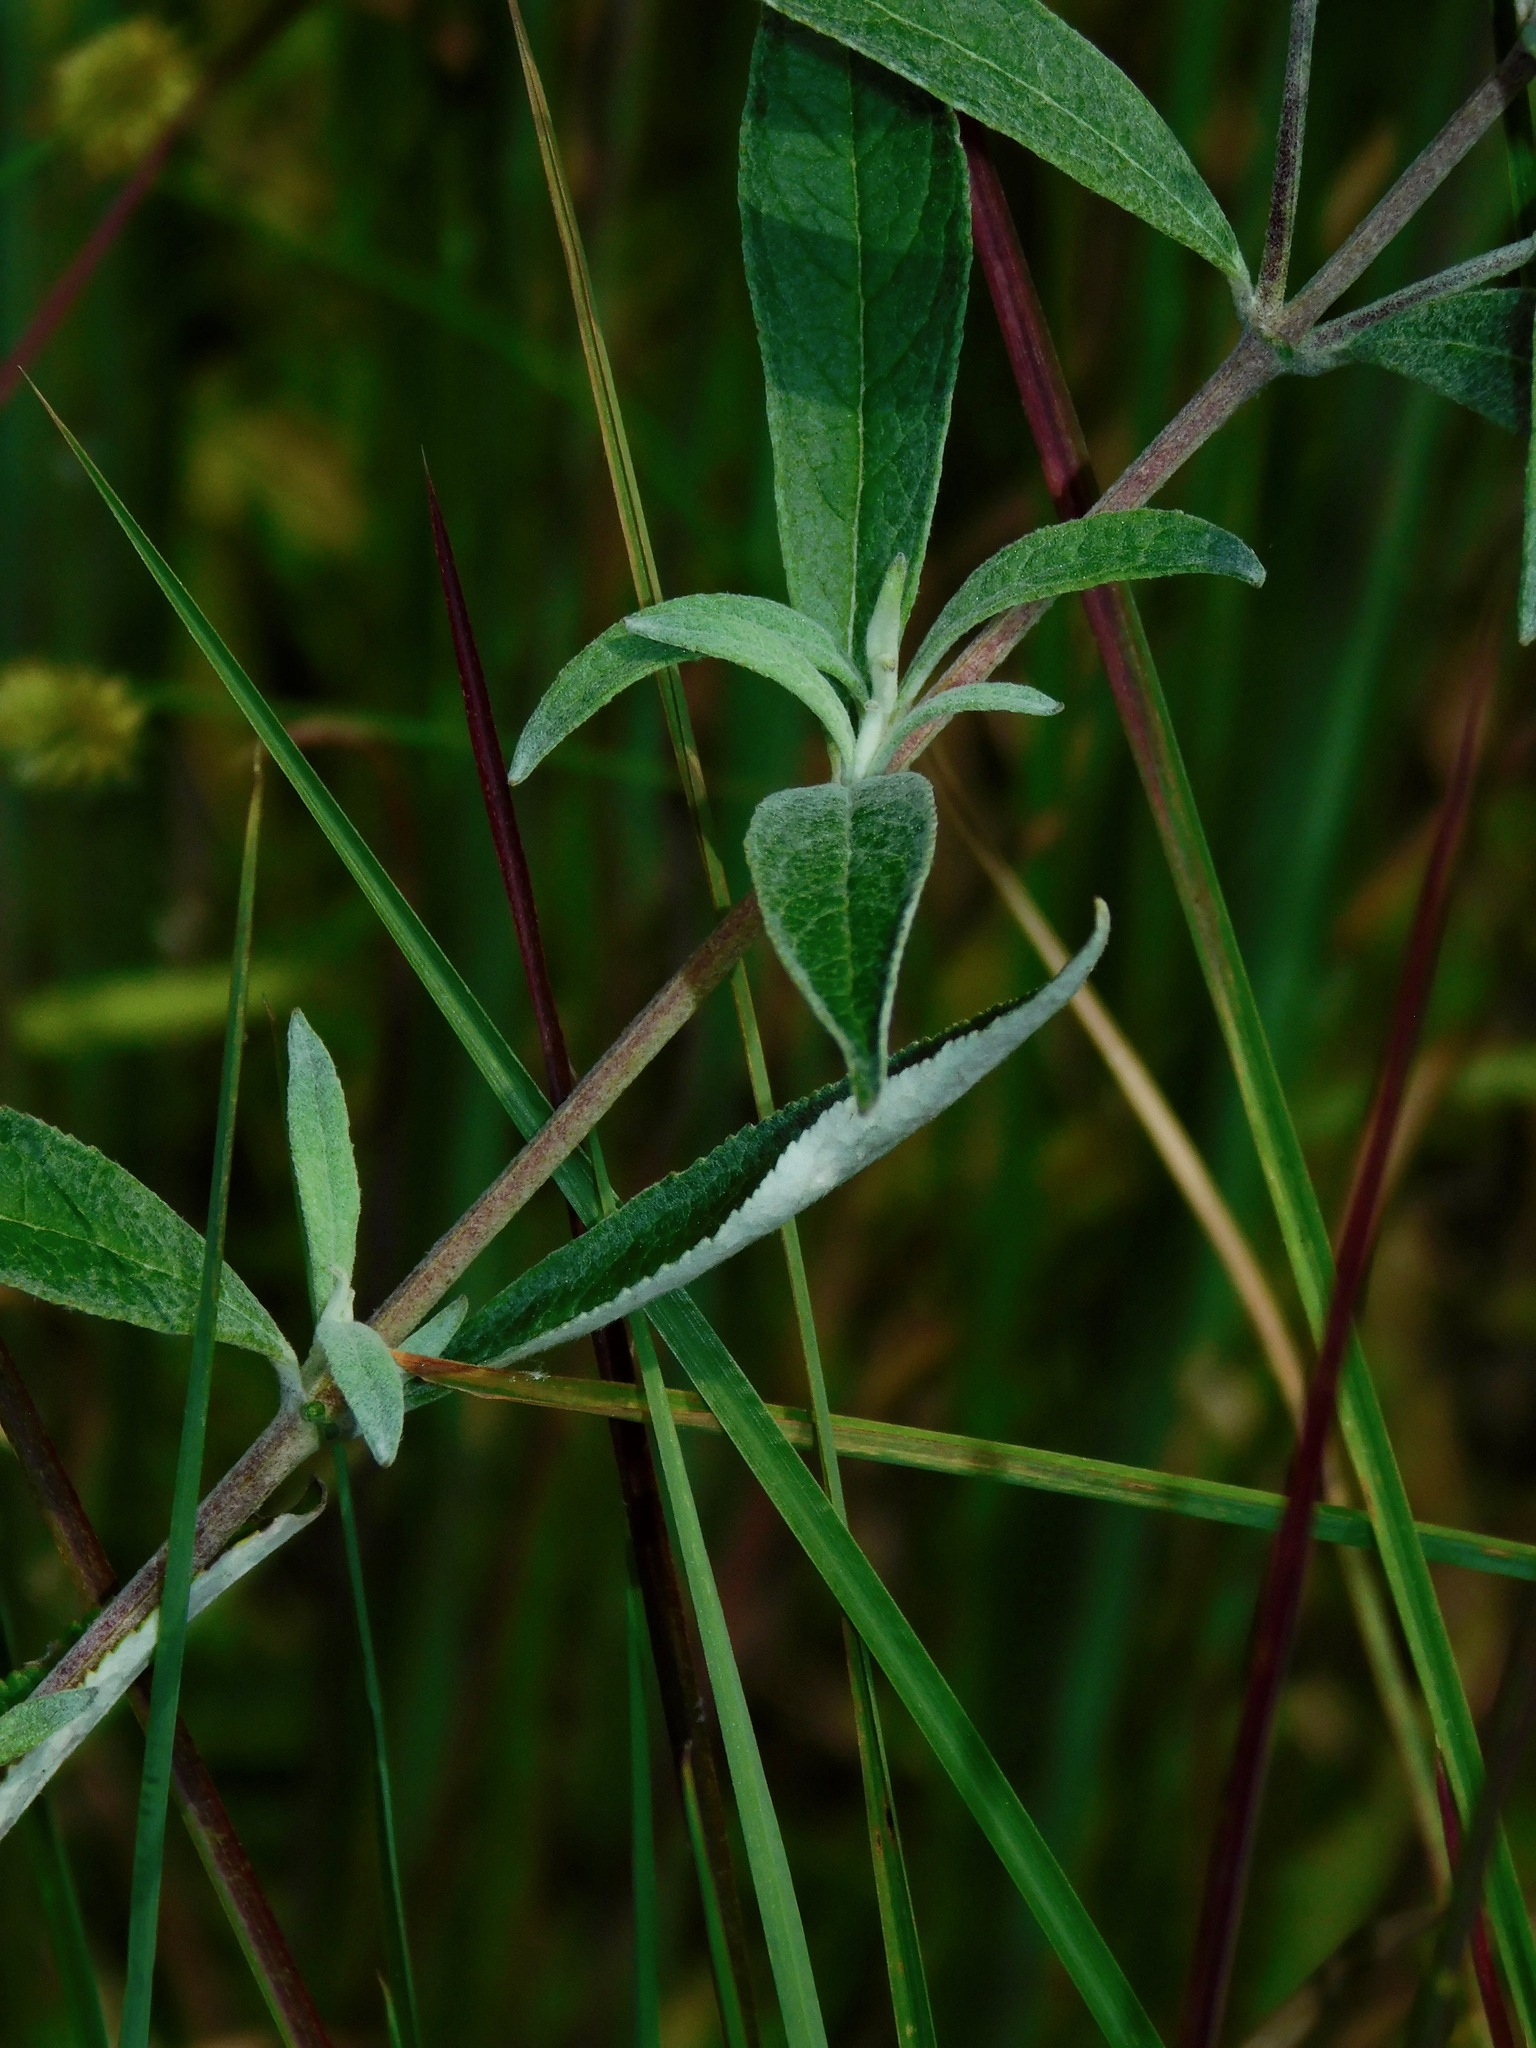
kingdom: Plantae
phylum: Tracheophyta
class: Magnoliopsida
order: Lamiales
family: Scrophulariaceae
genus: Buddleja
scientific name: Buddleja davidii
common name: Butterfly-bush
